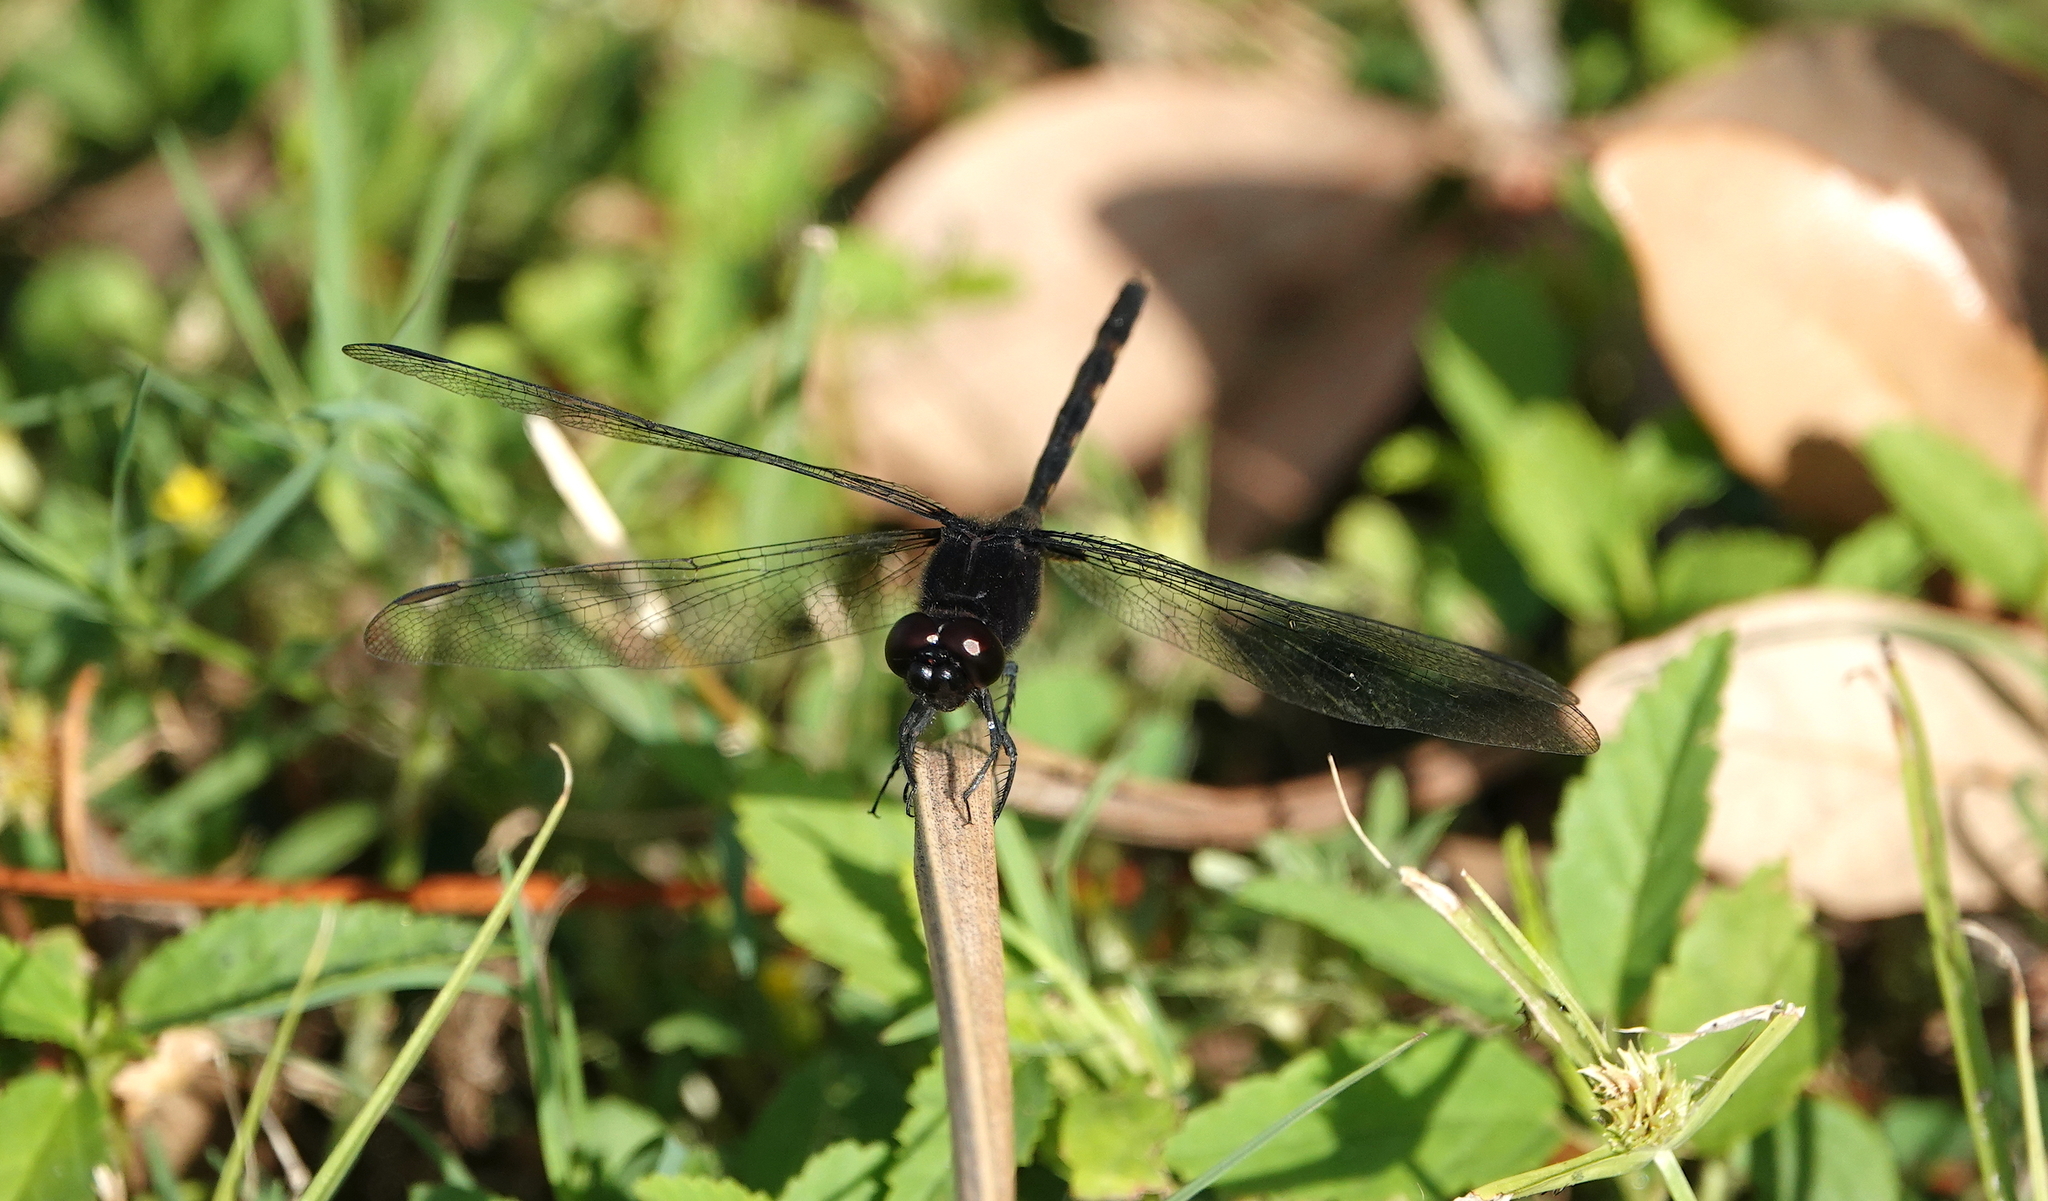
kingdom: Animalia
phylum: Arthropoda
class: Insecta
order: Odonata
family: Libellulidae
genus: Erythemis
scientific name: Erythemis plebeja
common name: Pin-tailed pondhawk
